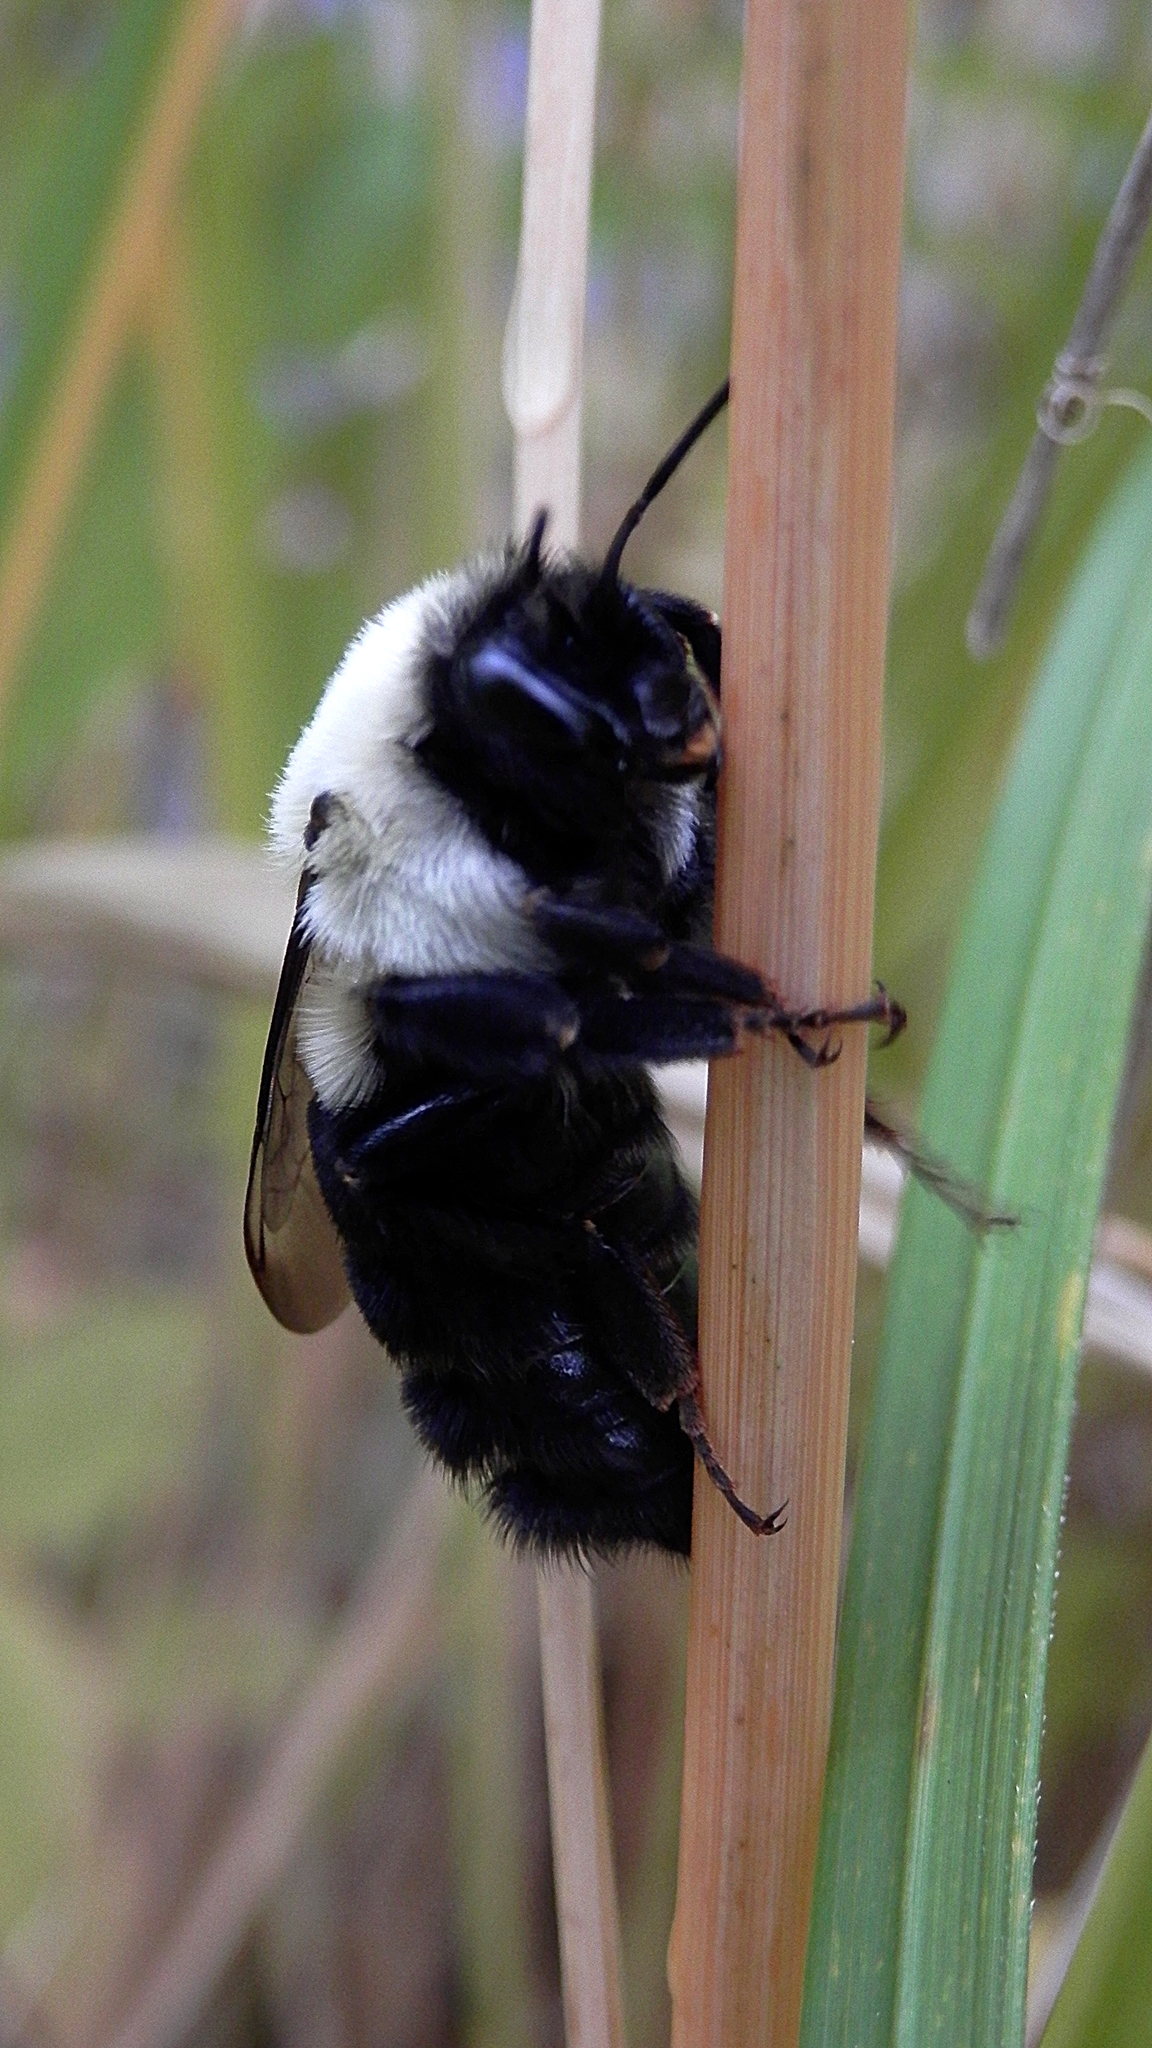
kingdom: Animalia
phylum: Arthropoda
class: Insecta
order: Hymenoptera
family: Apidae
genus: Bombus
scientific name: Bombus impatiens
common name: Common eastern bumble bee
